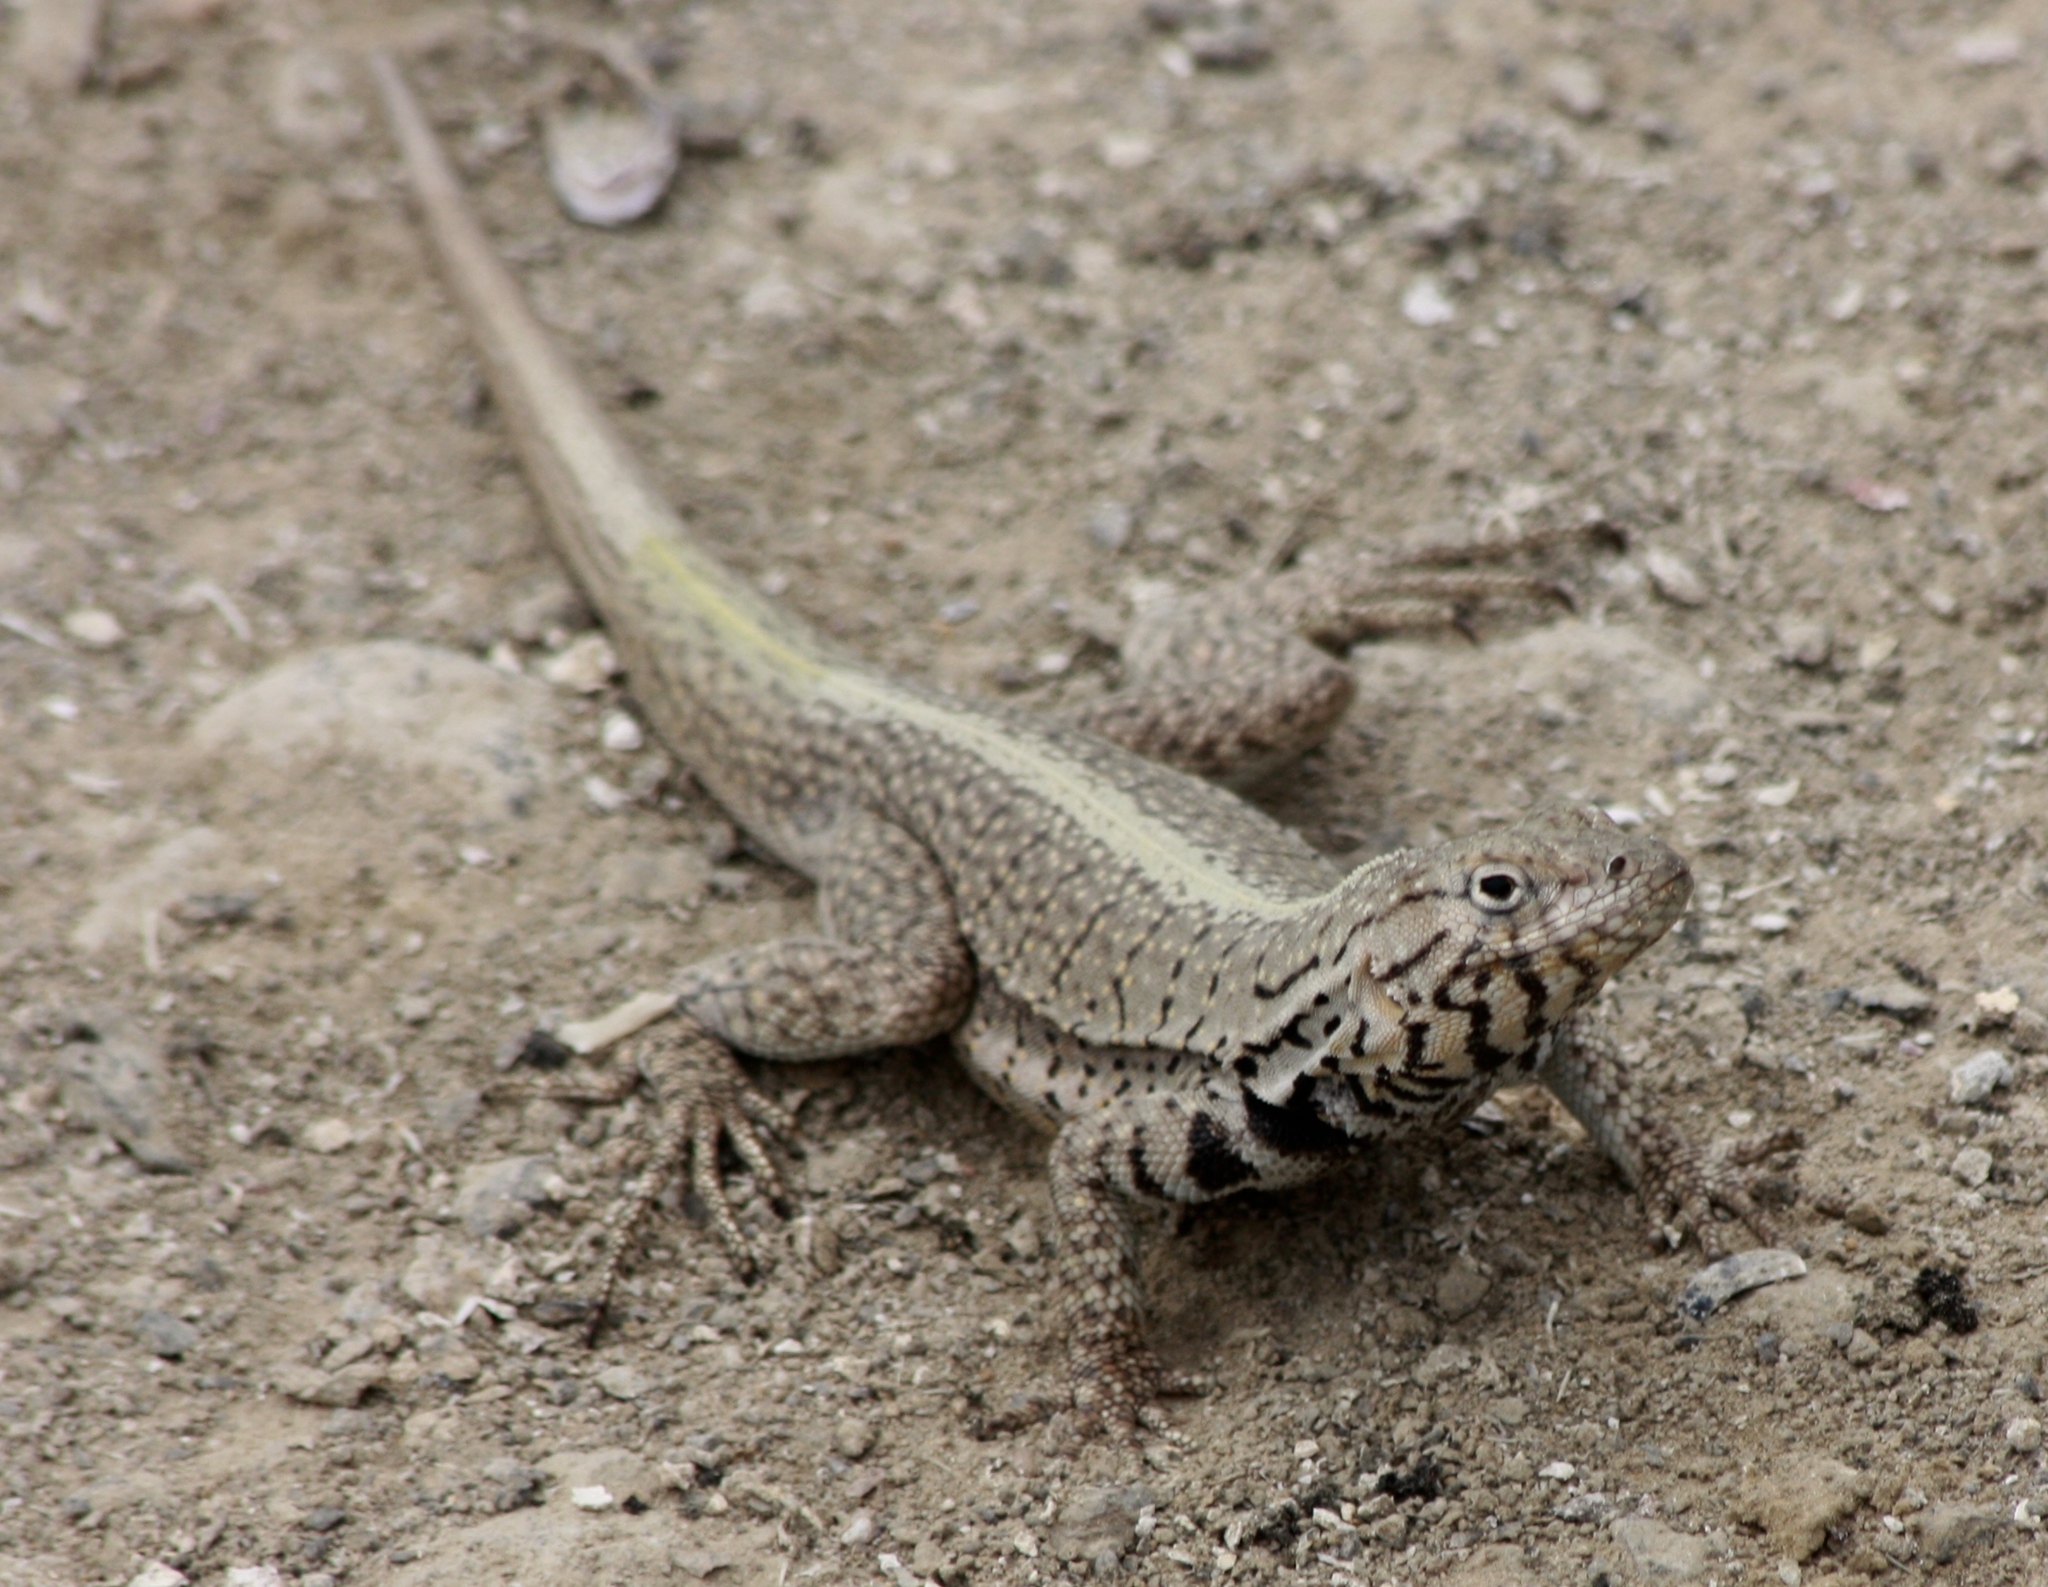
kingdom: Animalia
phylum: Chordata
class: Squamata
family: Tropiduridae
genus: Microlophus
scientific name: Microlophus peruvianus
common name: Peru pacific iguana
